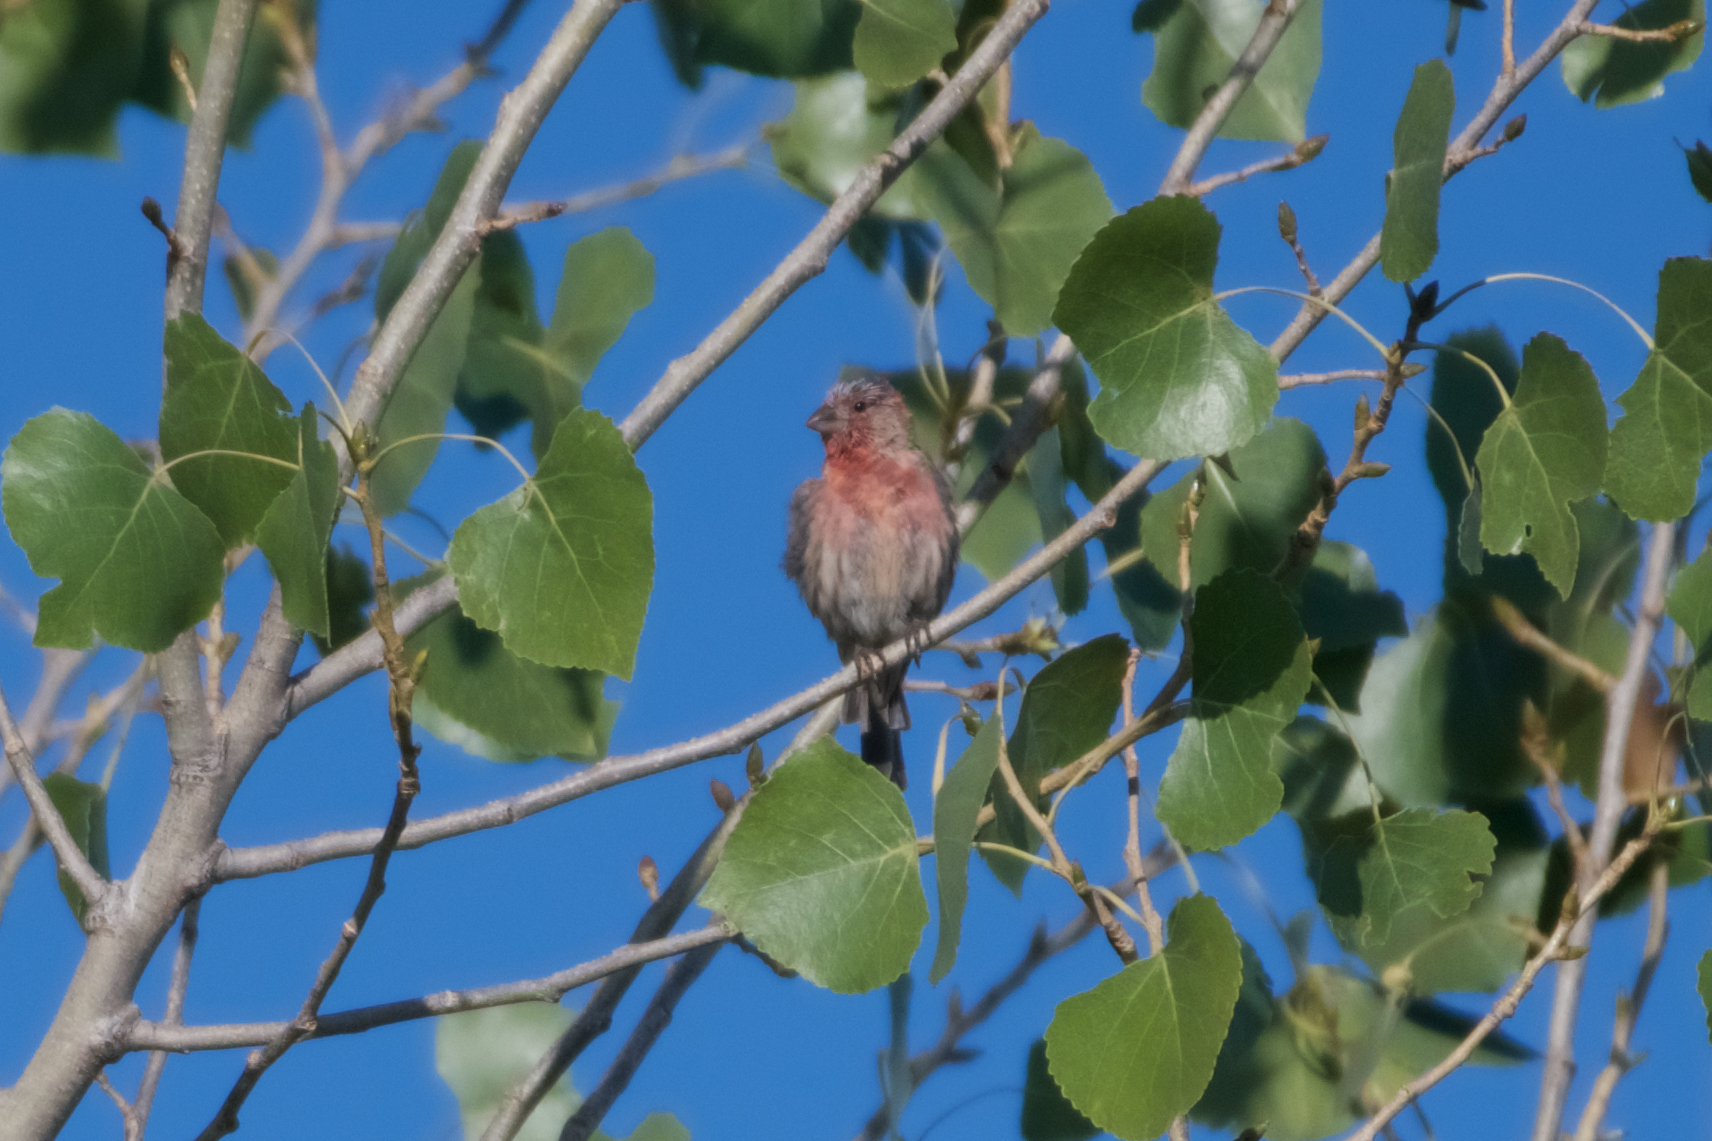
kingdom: Animalia
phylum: Chordata
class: Aves
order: Passeriformes
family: Fringillidae
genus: Haemorhous
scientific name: Haemorhous mexicanus
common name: House finch
